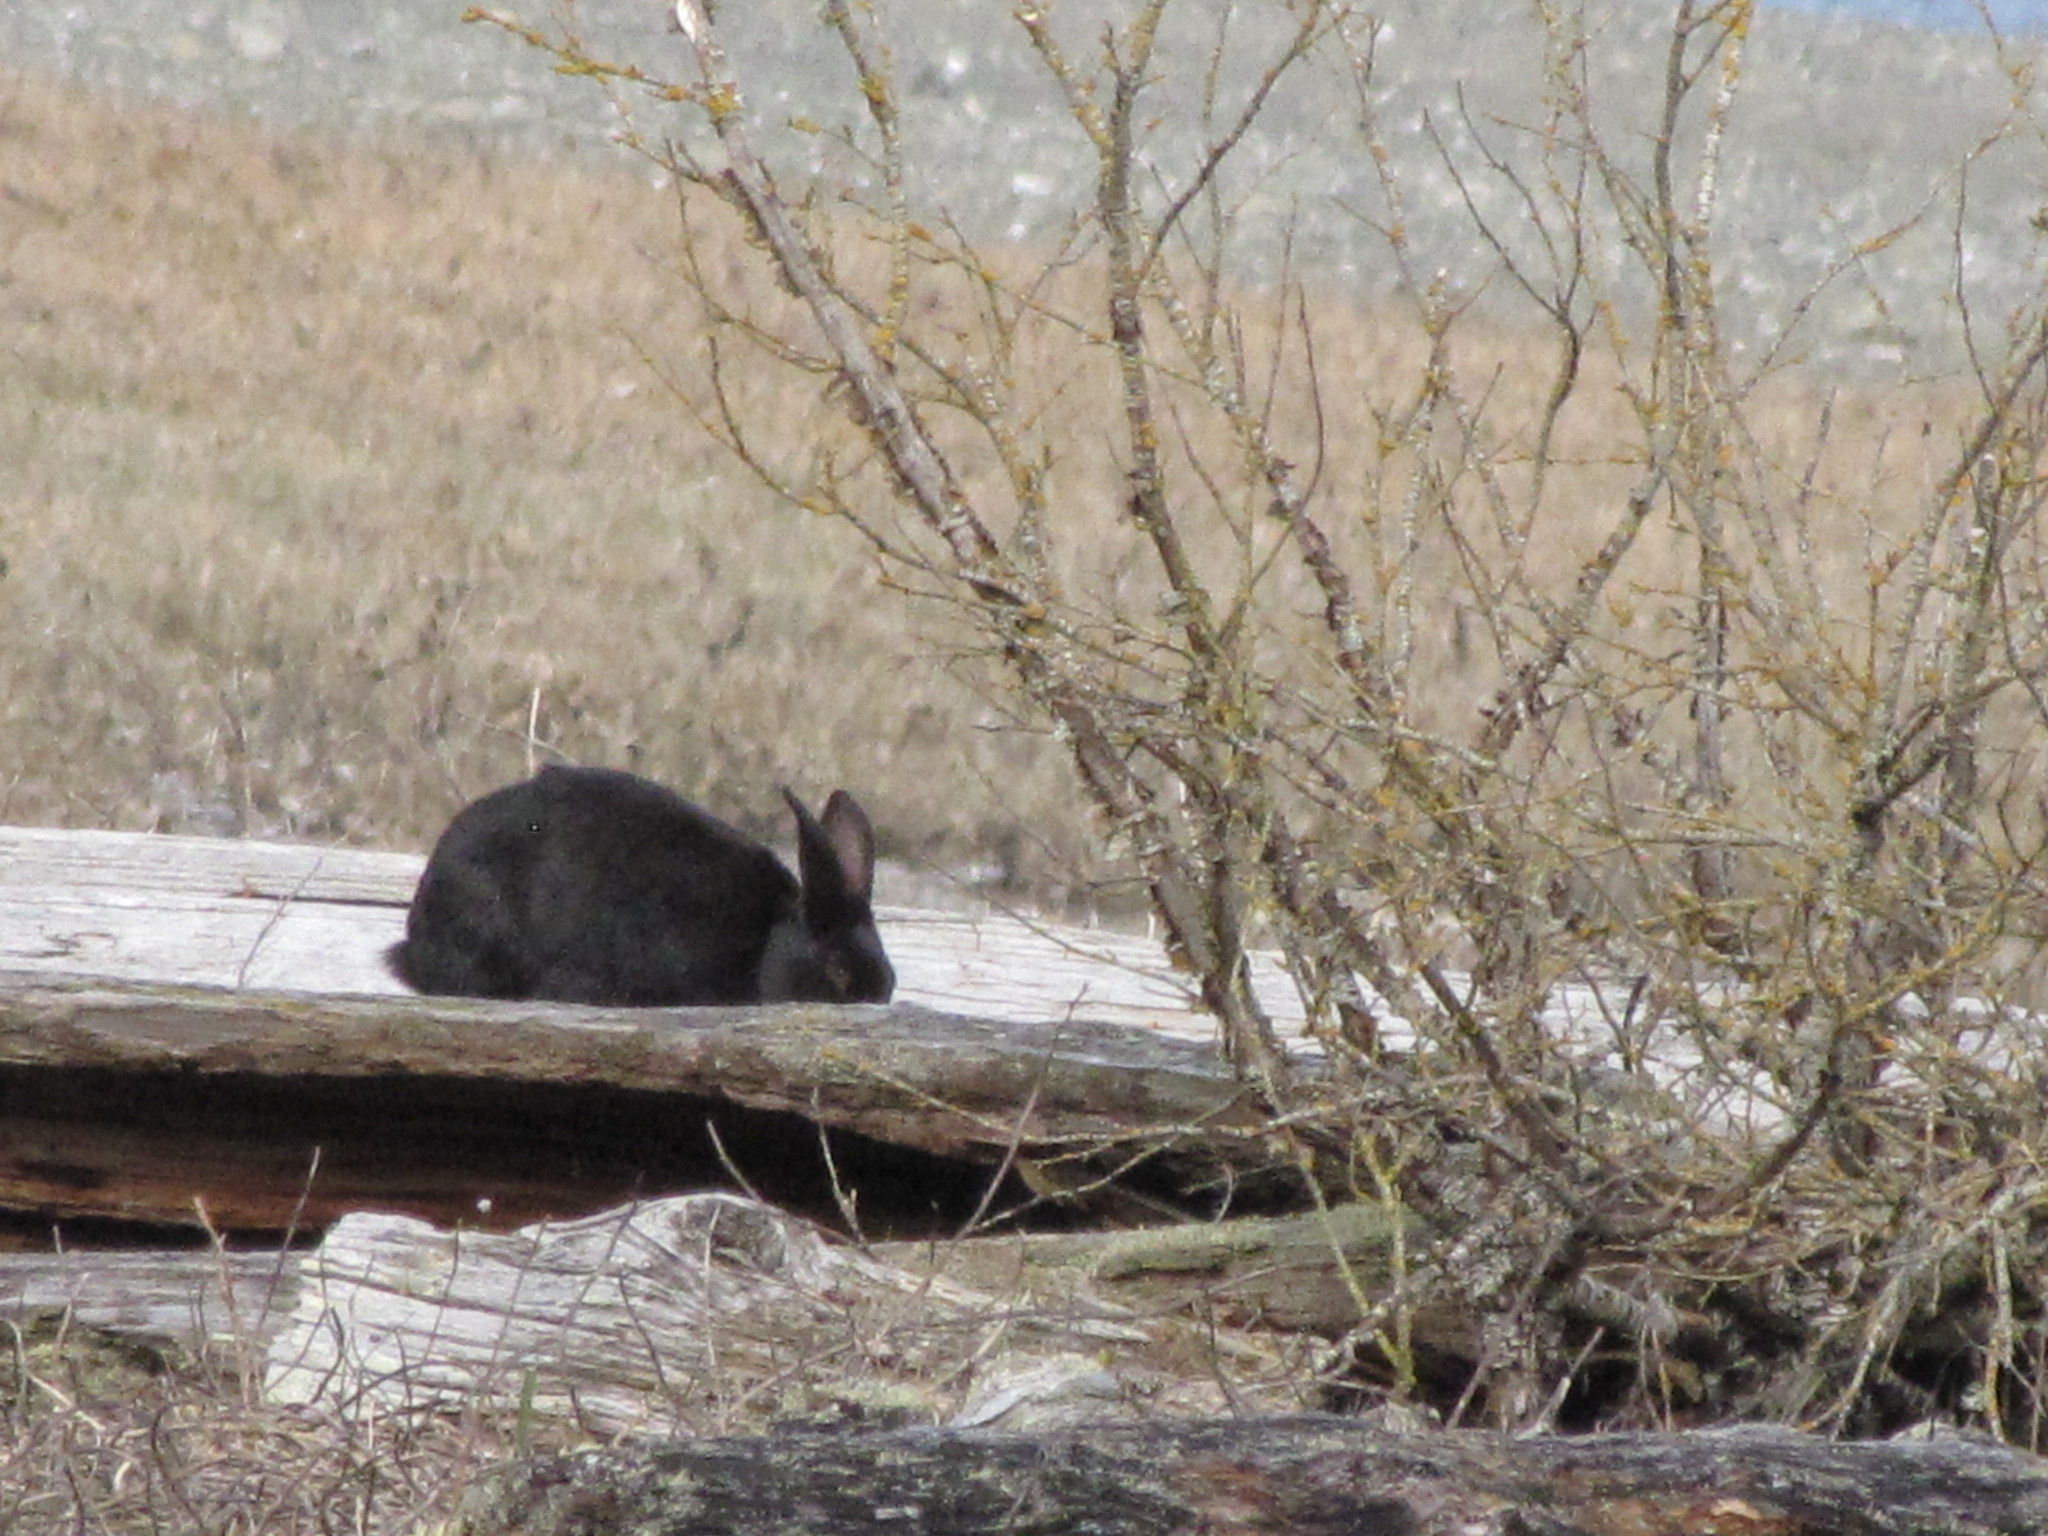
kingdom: Animalia
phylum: Chordata
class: Mammalia
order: Lagomorpha
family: Leporidae
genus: Oryctolagus
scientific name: Oryctolagus cuniculus
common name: European rabbit
